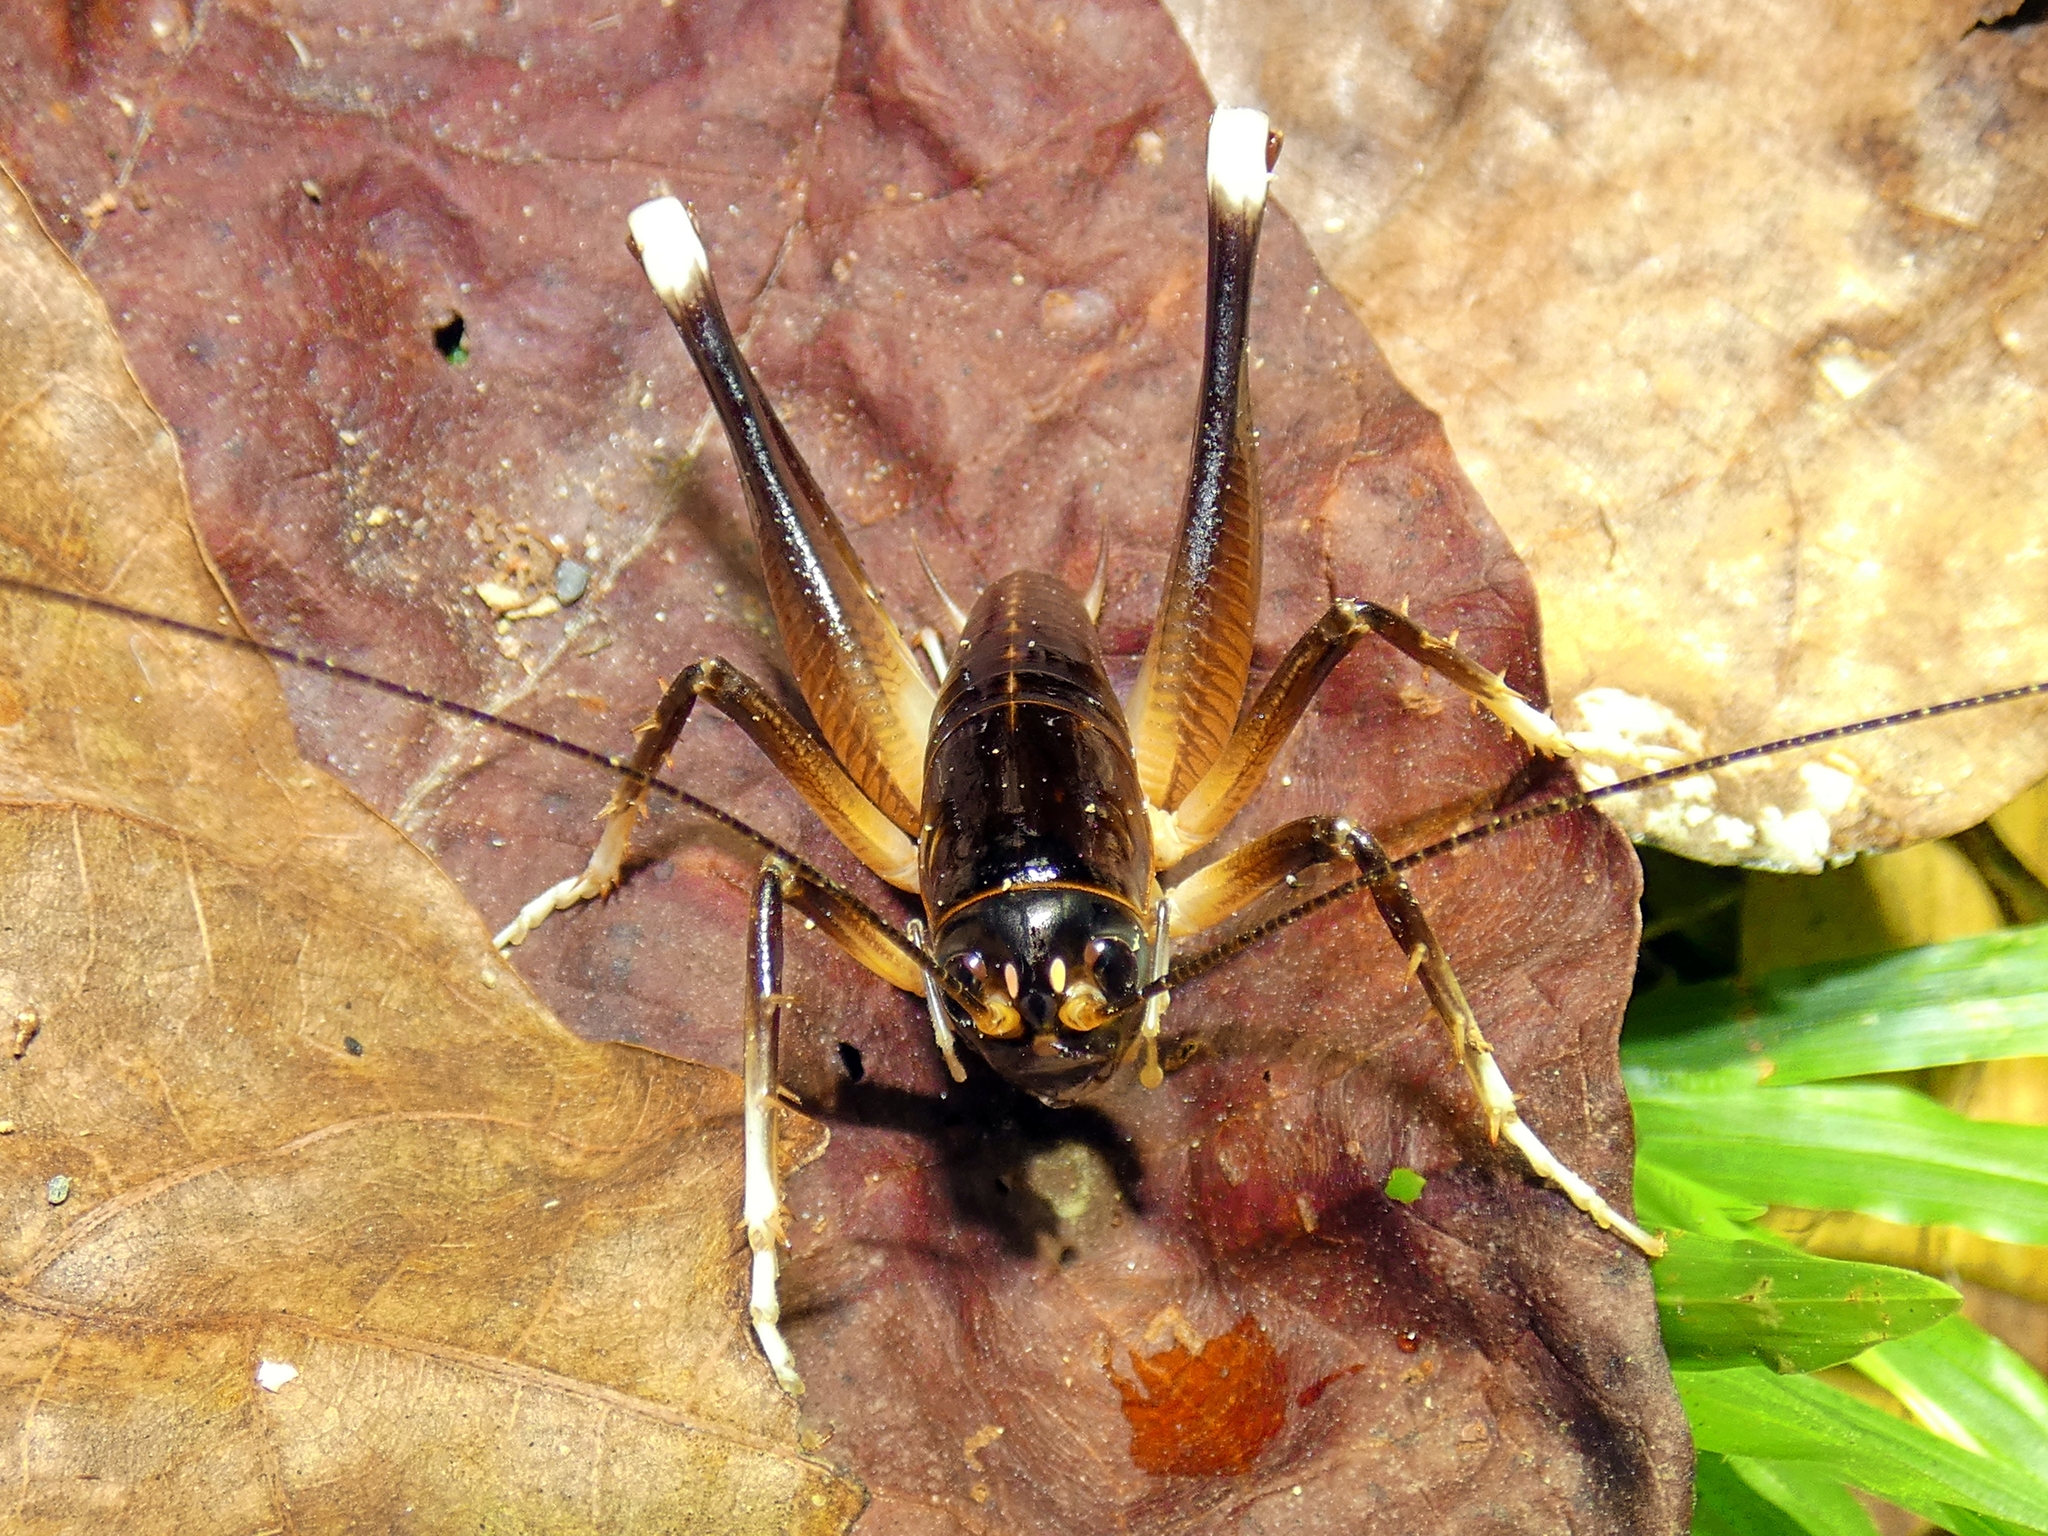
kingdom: Animalia
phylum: Arthropoda
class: Insecta
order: Orthoptera
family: Anostostomatidae
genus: Penalva
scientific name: Penalva flavocalceata
